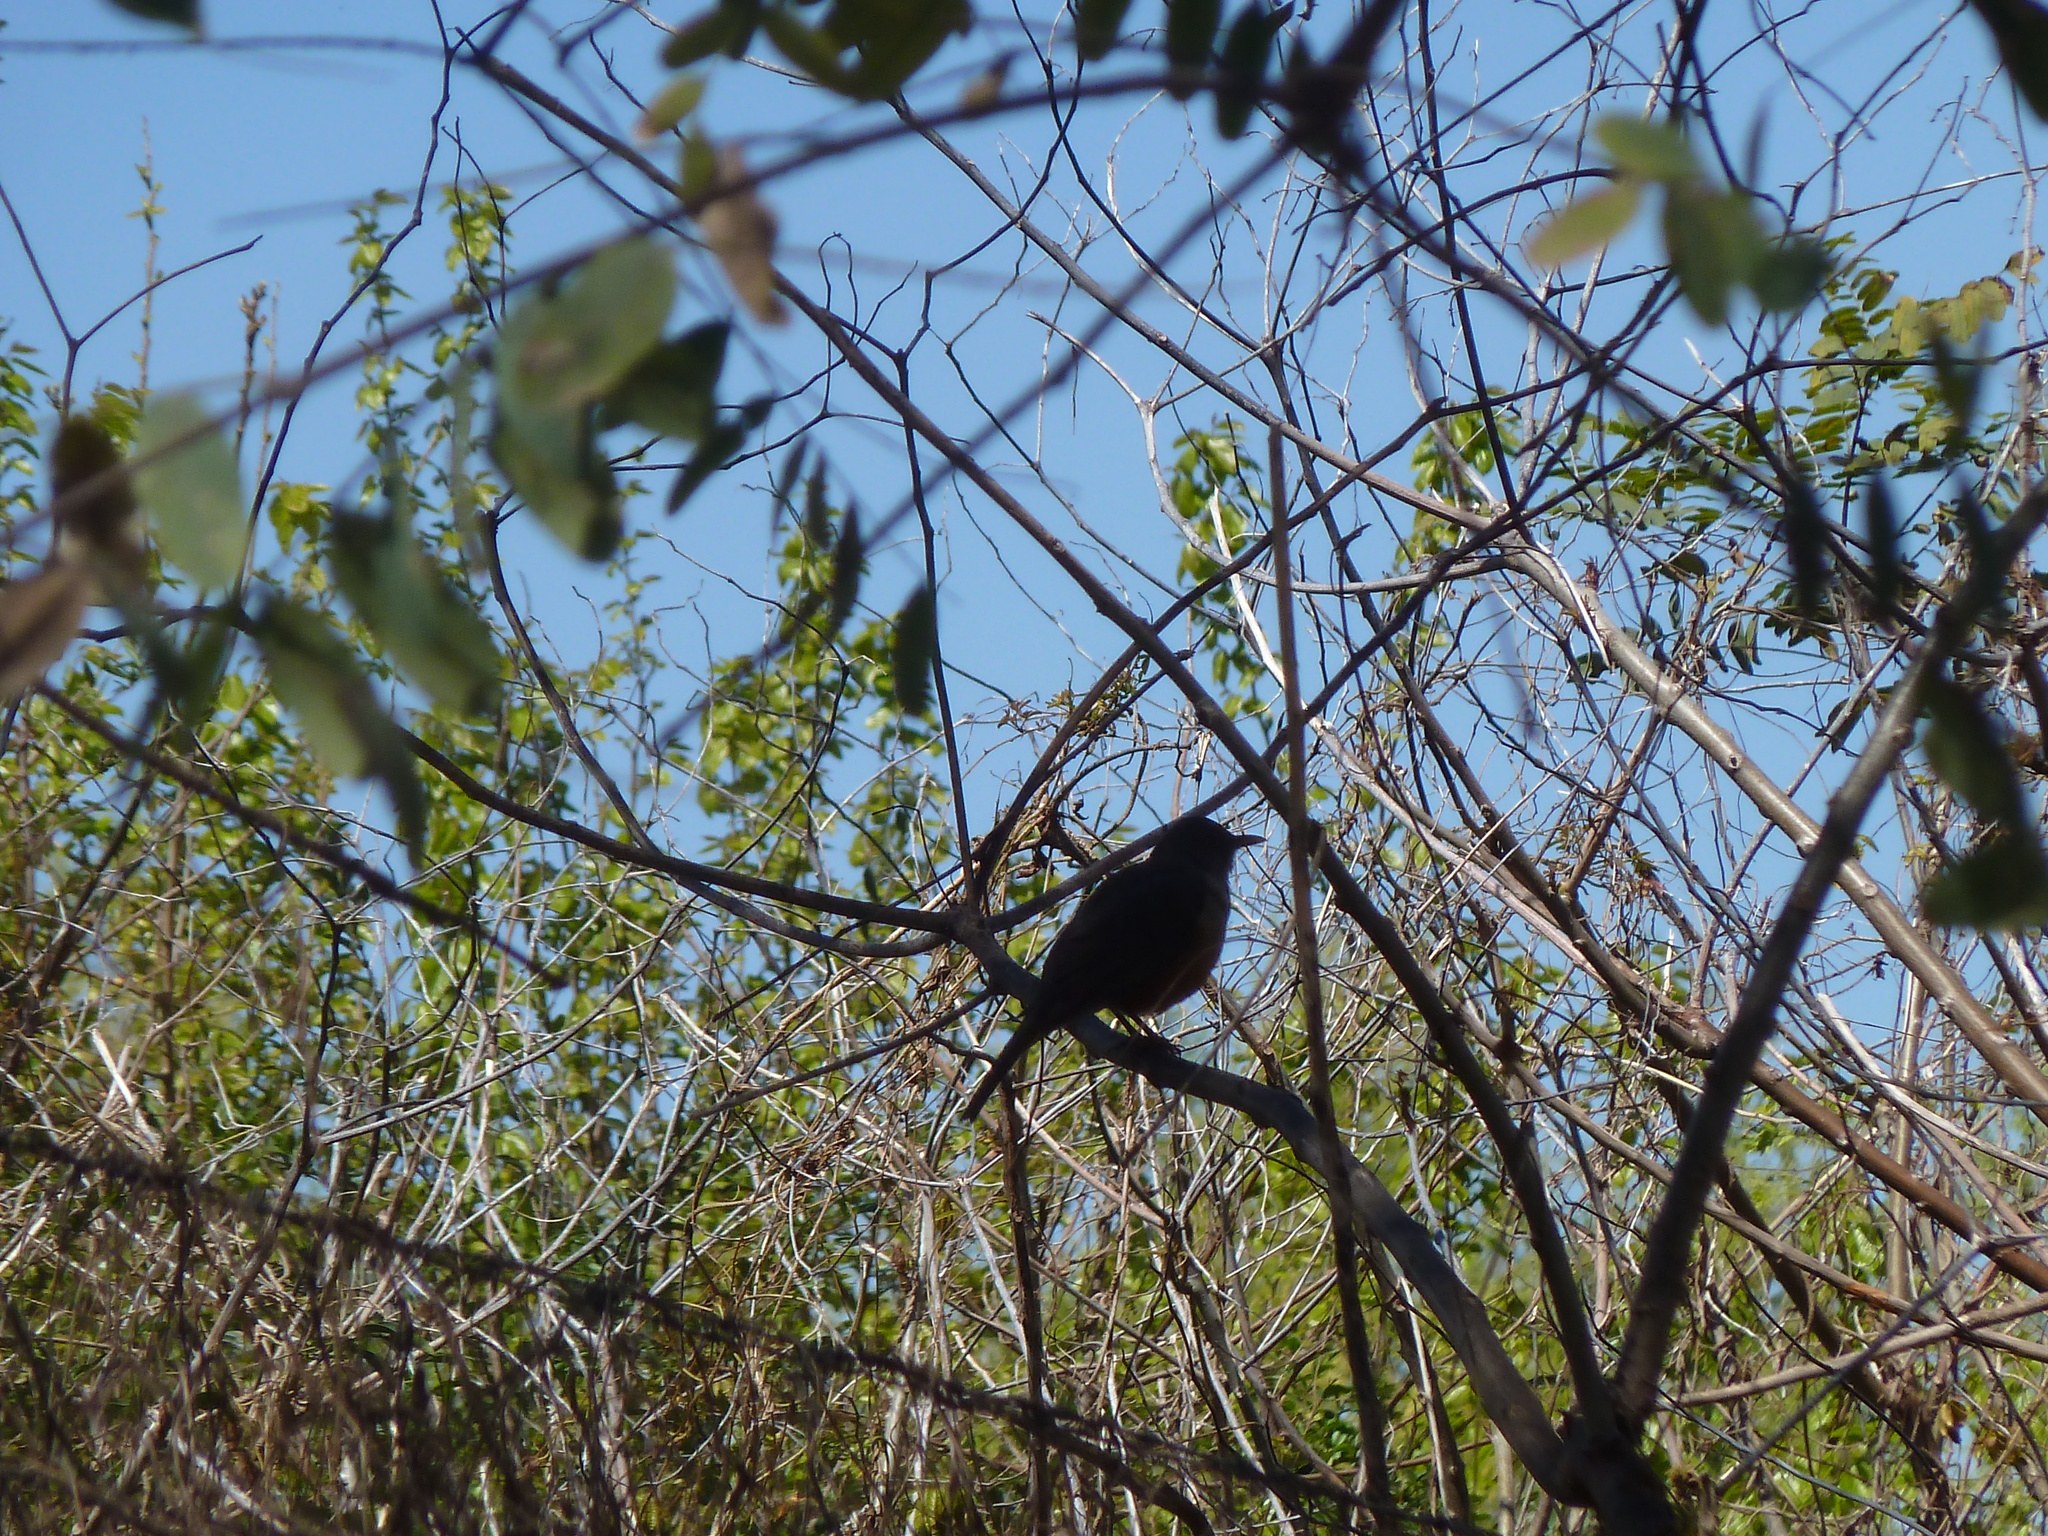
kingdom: Animalia
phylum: Chordata
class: Aves
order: Passeriformes
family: Turdidae
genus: Turdus
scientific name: Turdus rufiventris
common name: Rufous-bellied thrush
